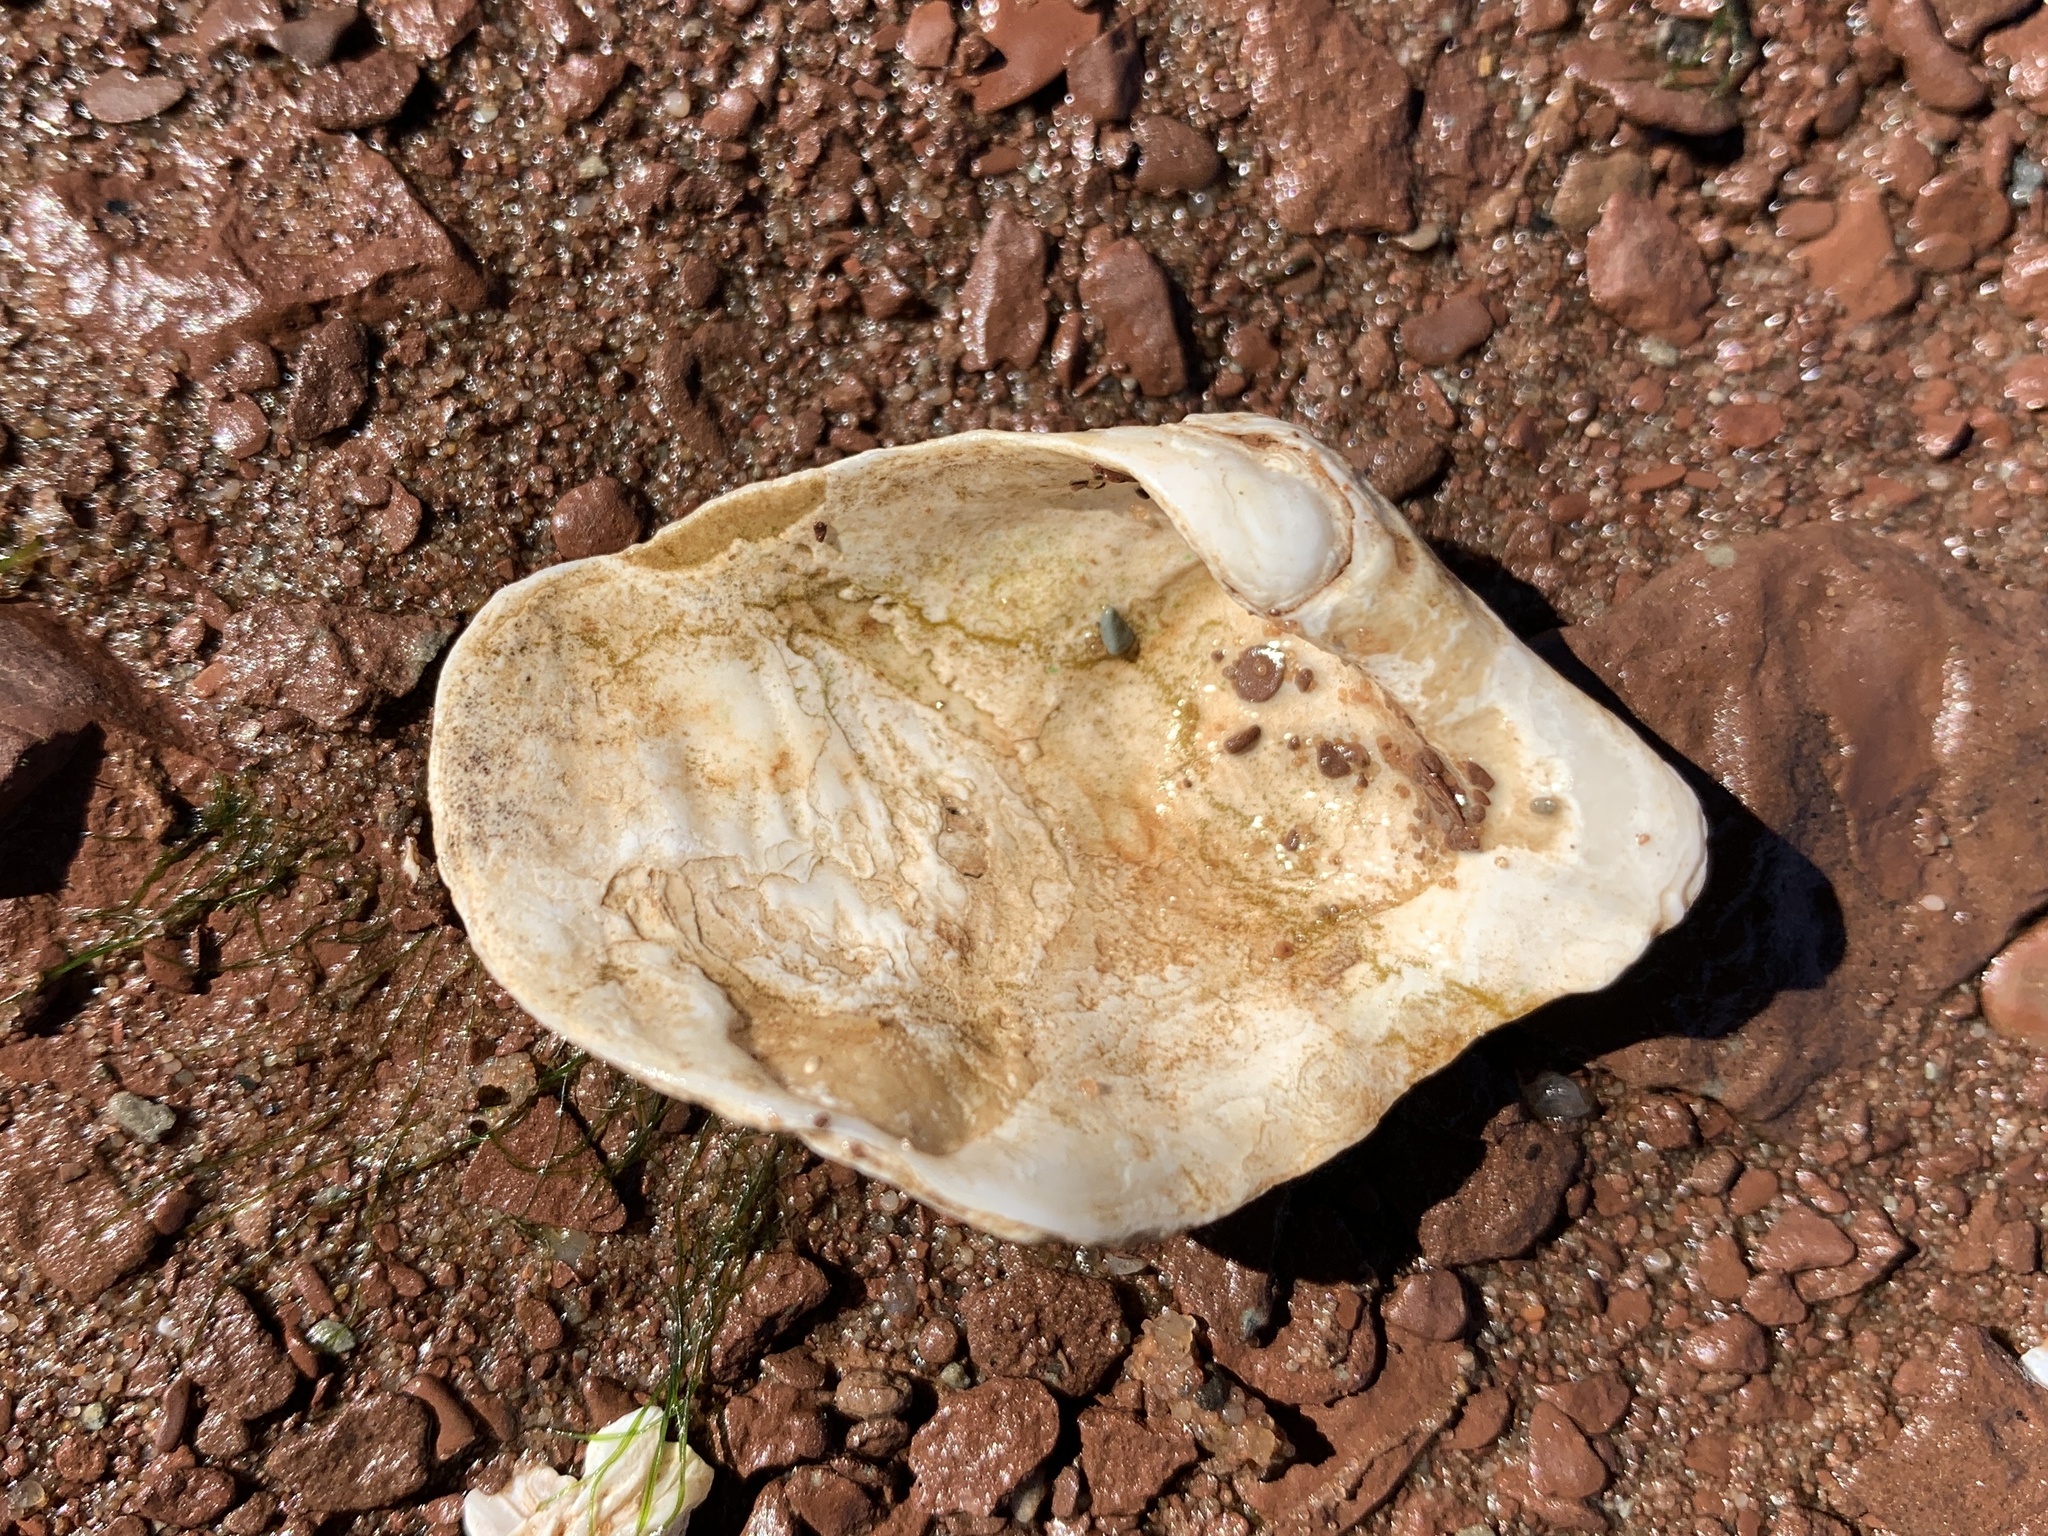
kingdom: Animalia
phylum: Mollusca
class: Bivalvia
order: Myida
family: Pholadidae
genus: Zirfaea
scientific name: Zirfaea crispata
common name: Oval piddock
